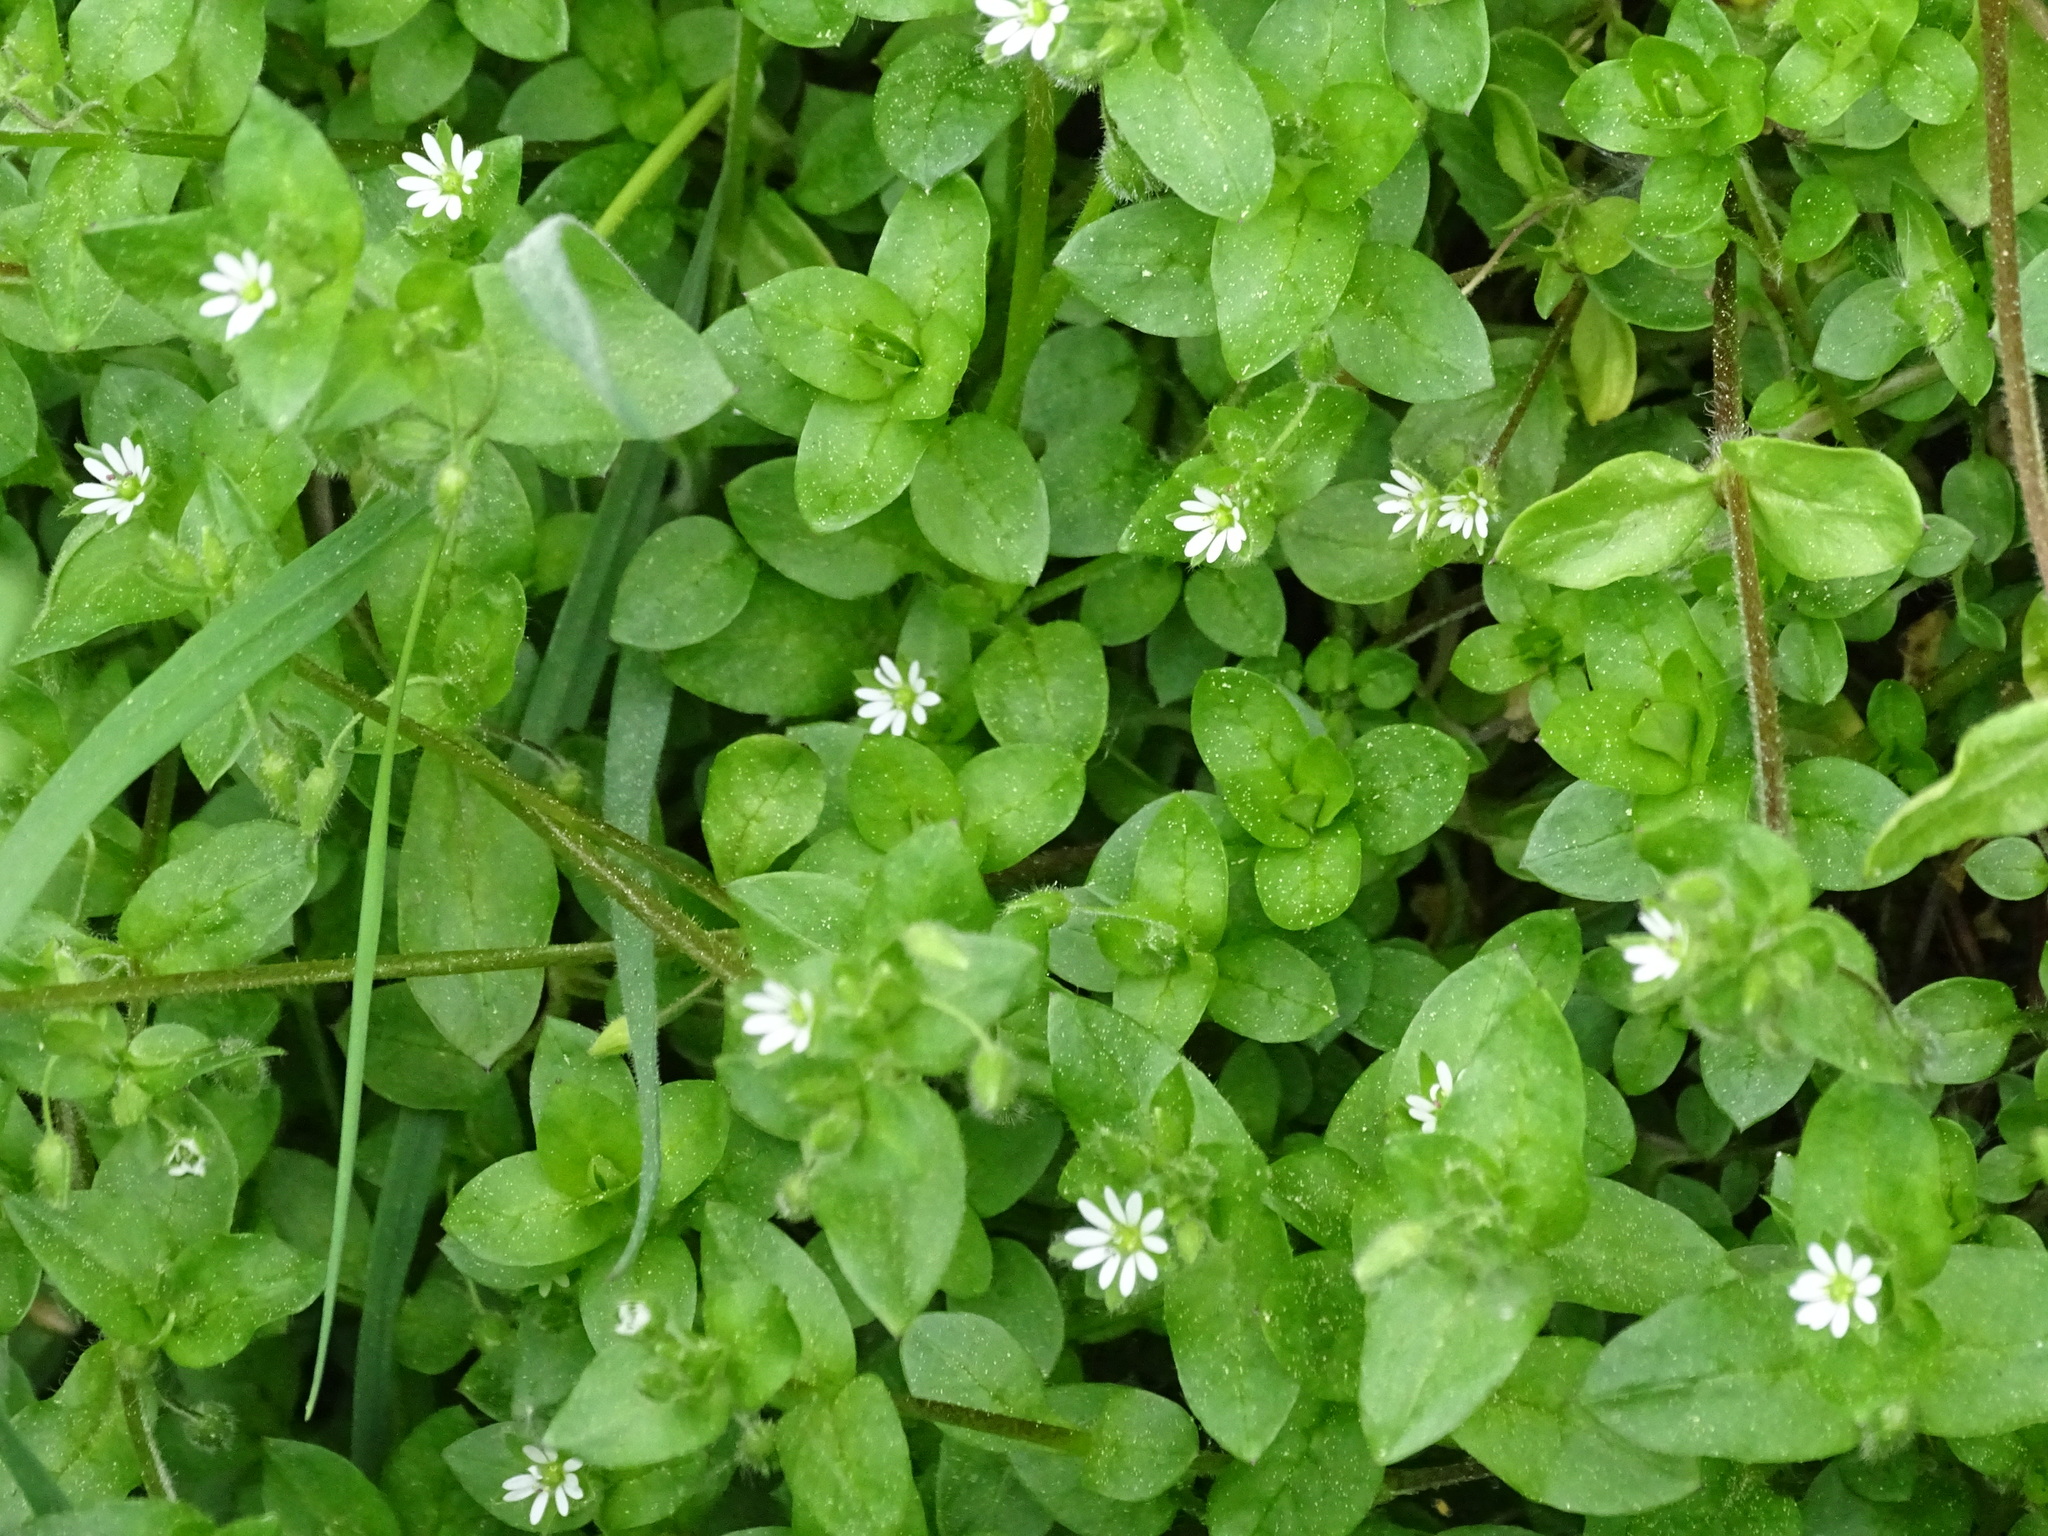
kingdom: Plantae
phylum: Tracheophyta
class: Magnoliopsida
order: Caryophyllales
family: Caryophyllaceae
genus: Stellaria
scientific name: Stellaria media
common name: Common chickweed
